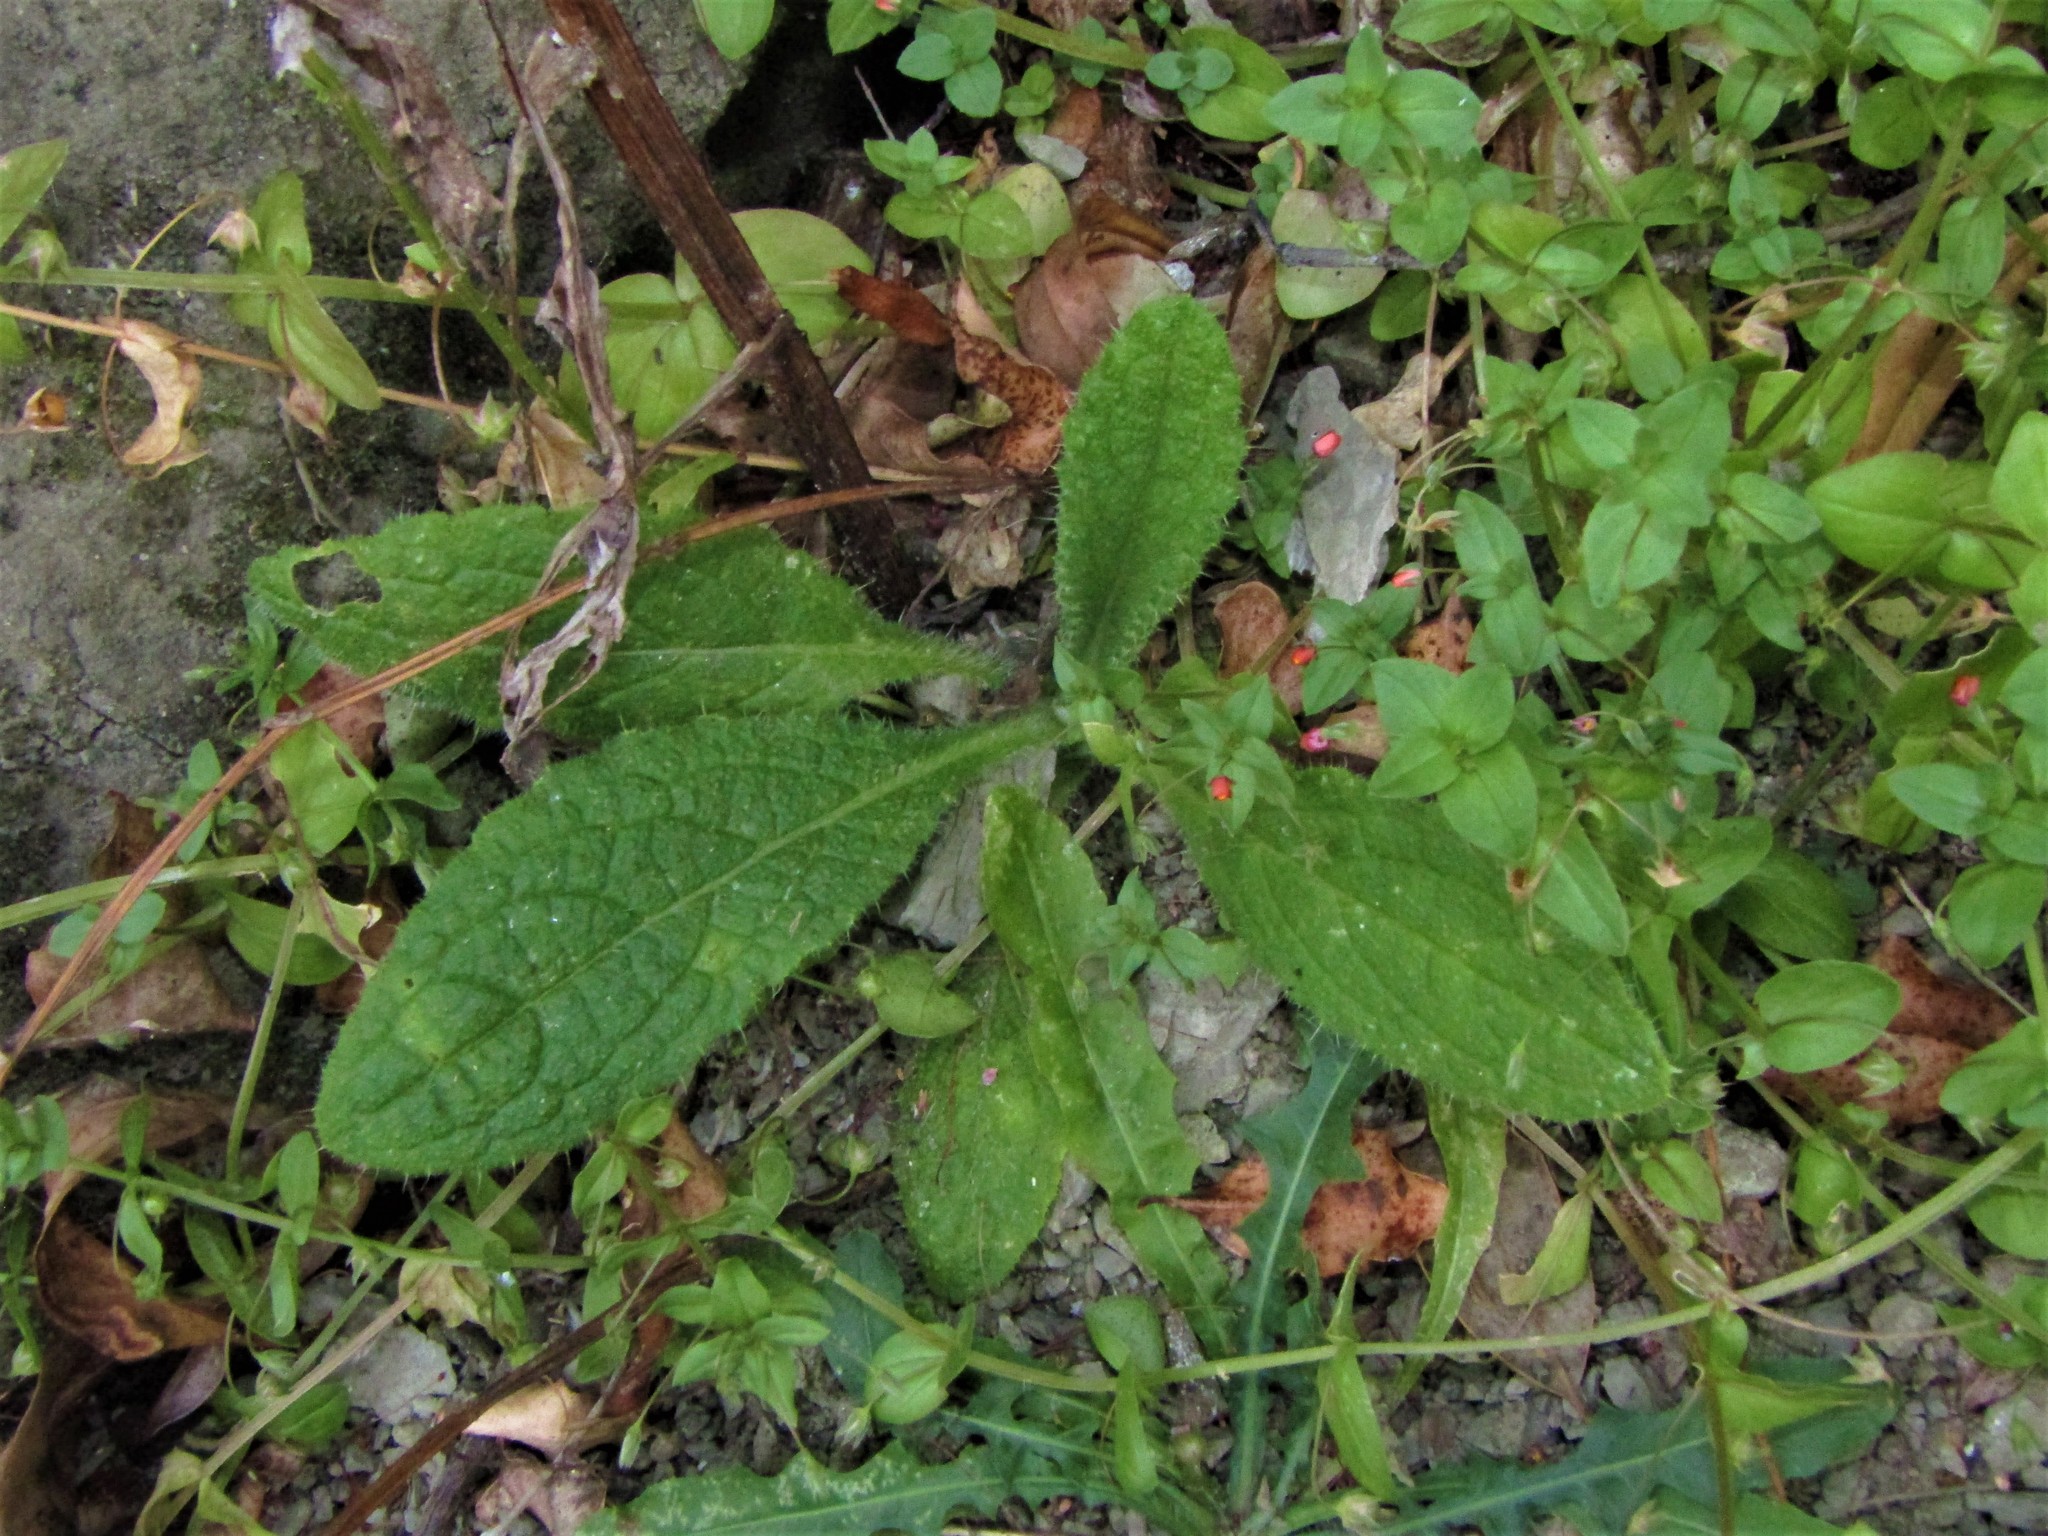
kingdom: Plantae
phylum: Tracheophyta
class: Magnoliopsida
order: Asterales
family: Asteraceae
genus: Cirsium
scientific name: Cirsium vulgare
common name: Bull thistle
